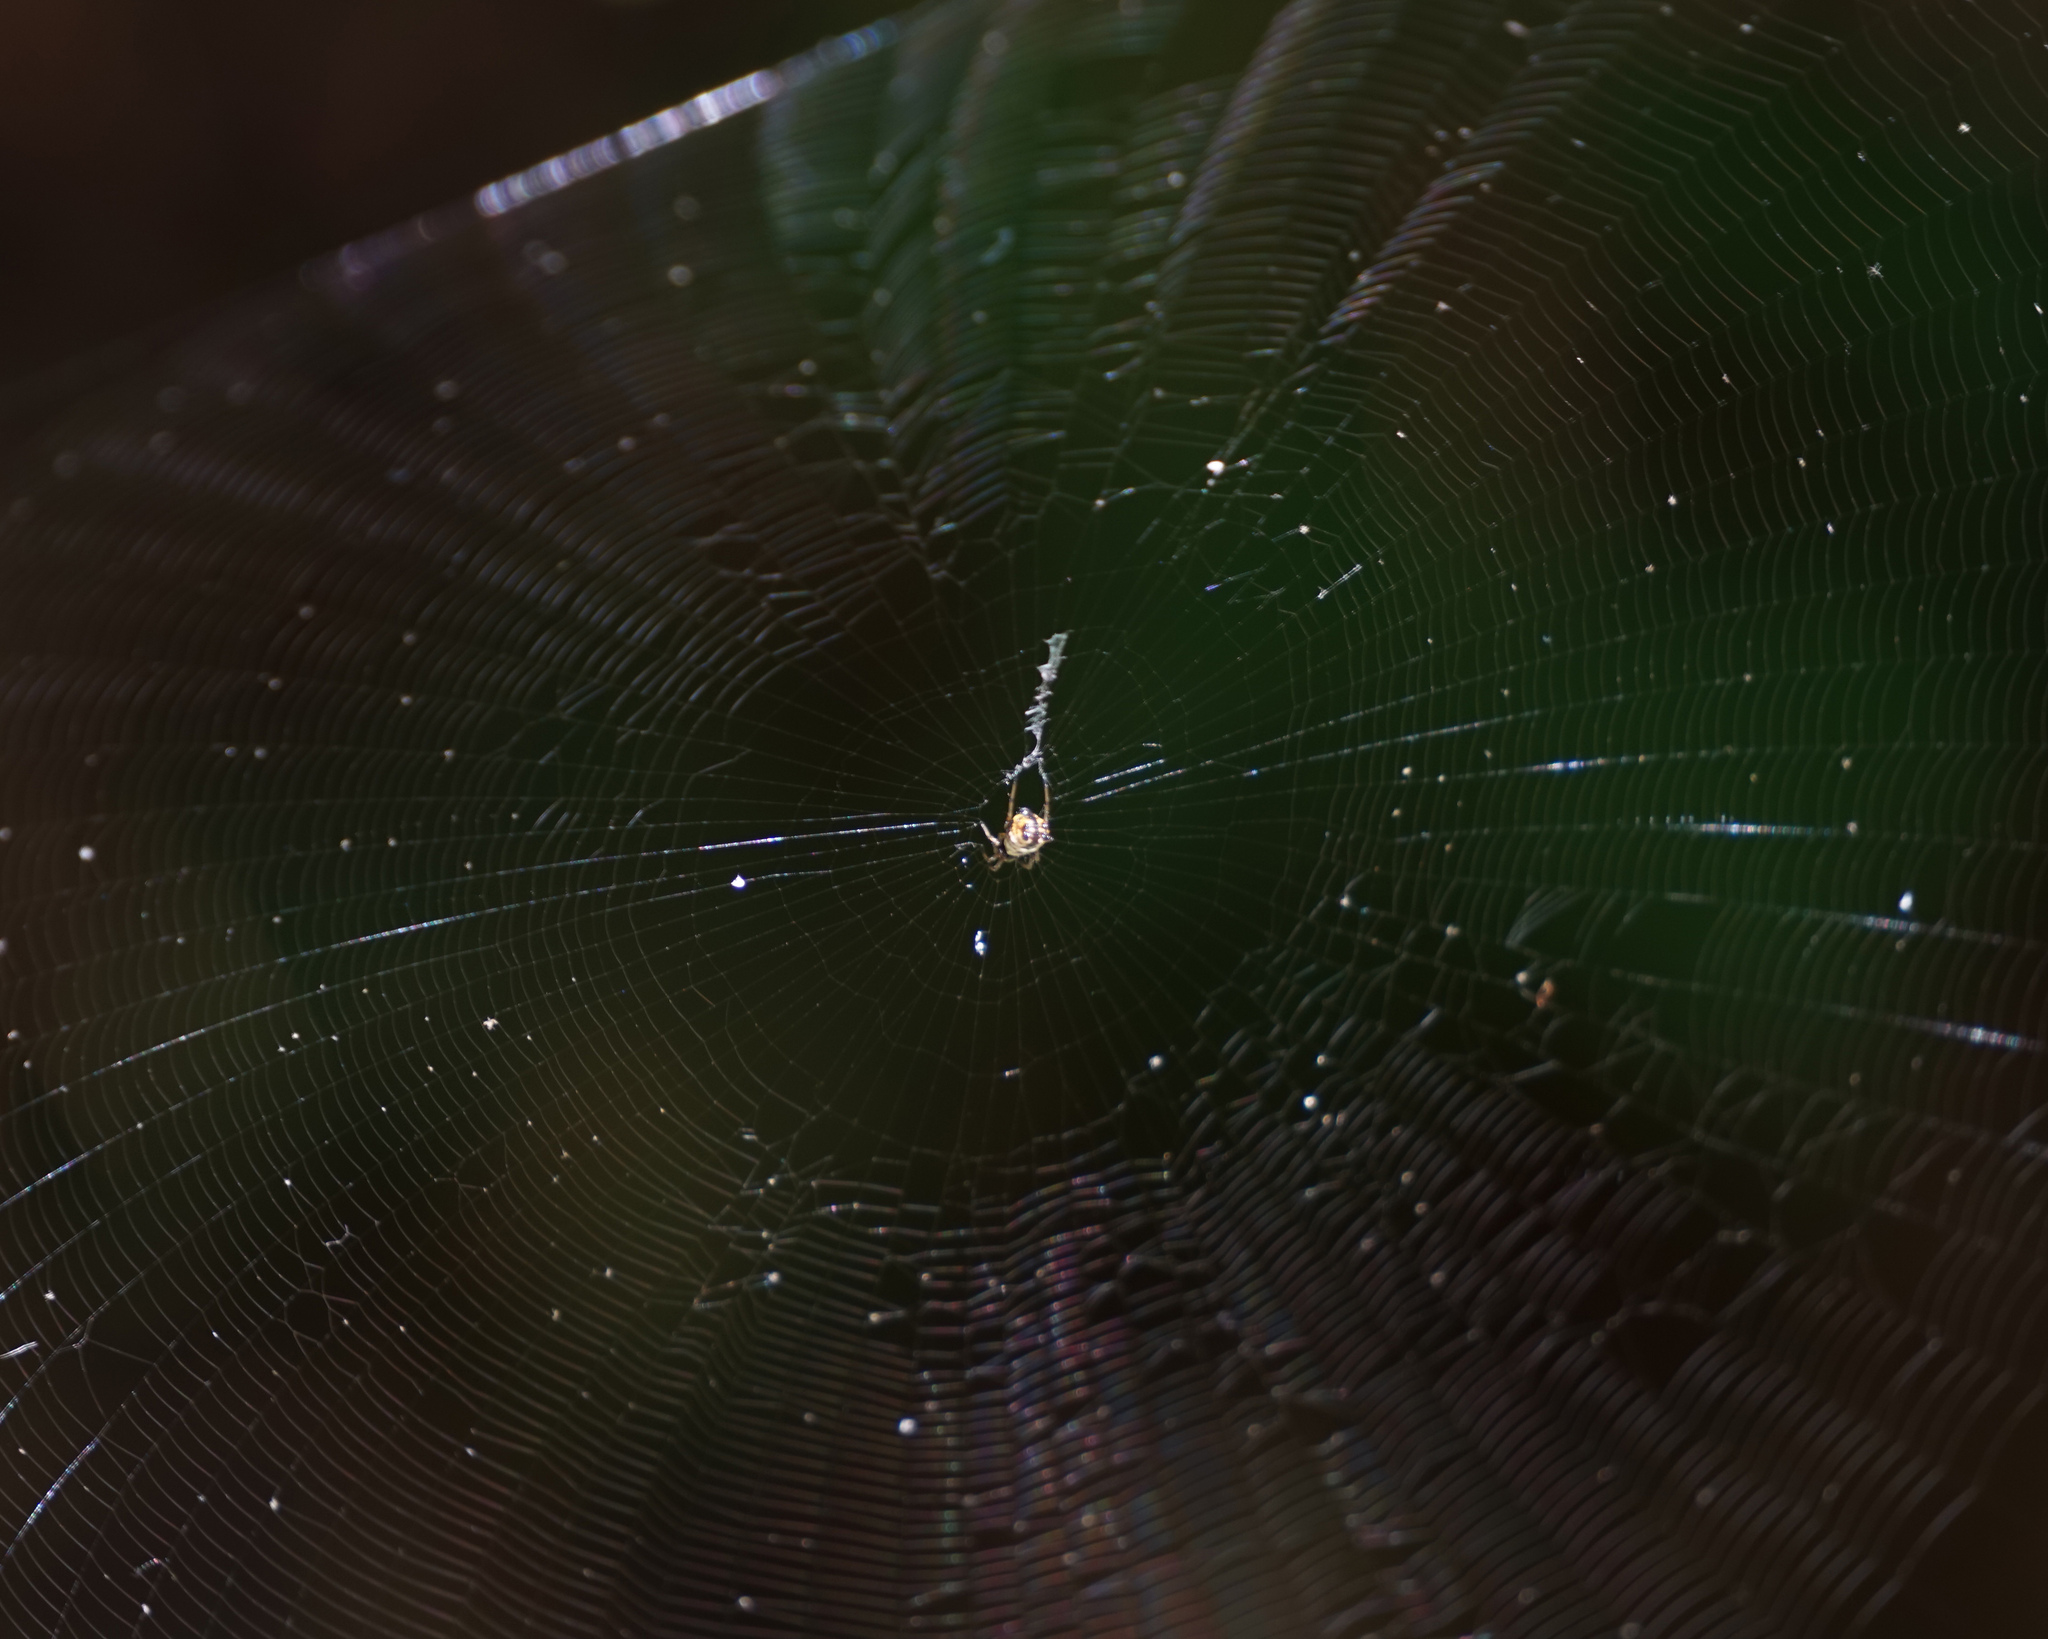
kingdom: Animalia
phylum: Arthropoda
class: Arachnida
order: Araneae
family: Araneidae
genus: Micrathena
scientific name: Micrathena mitrata
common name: Orb weavers
